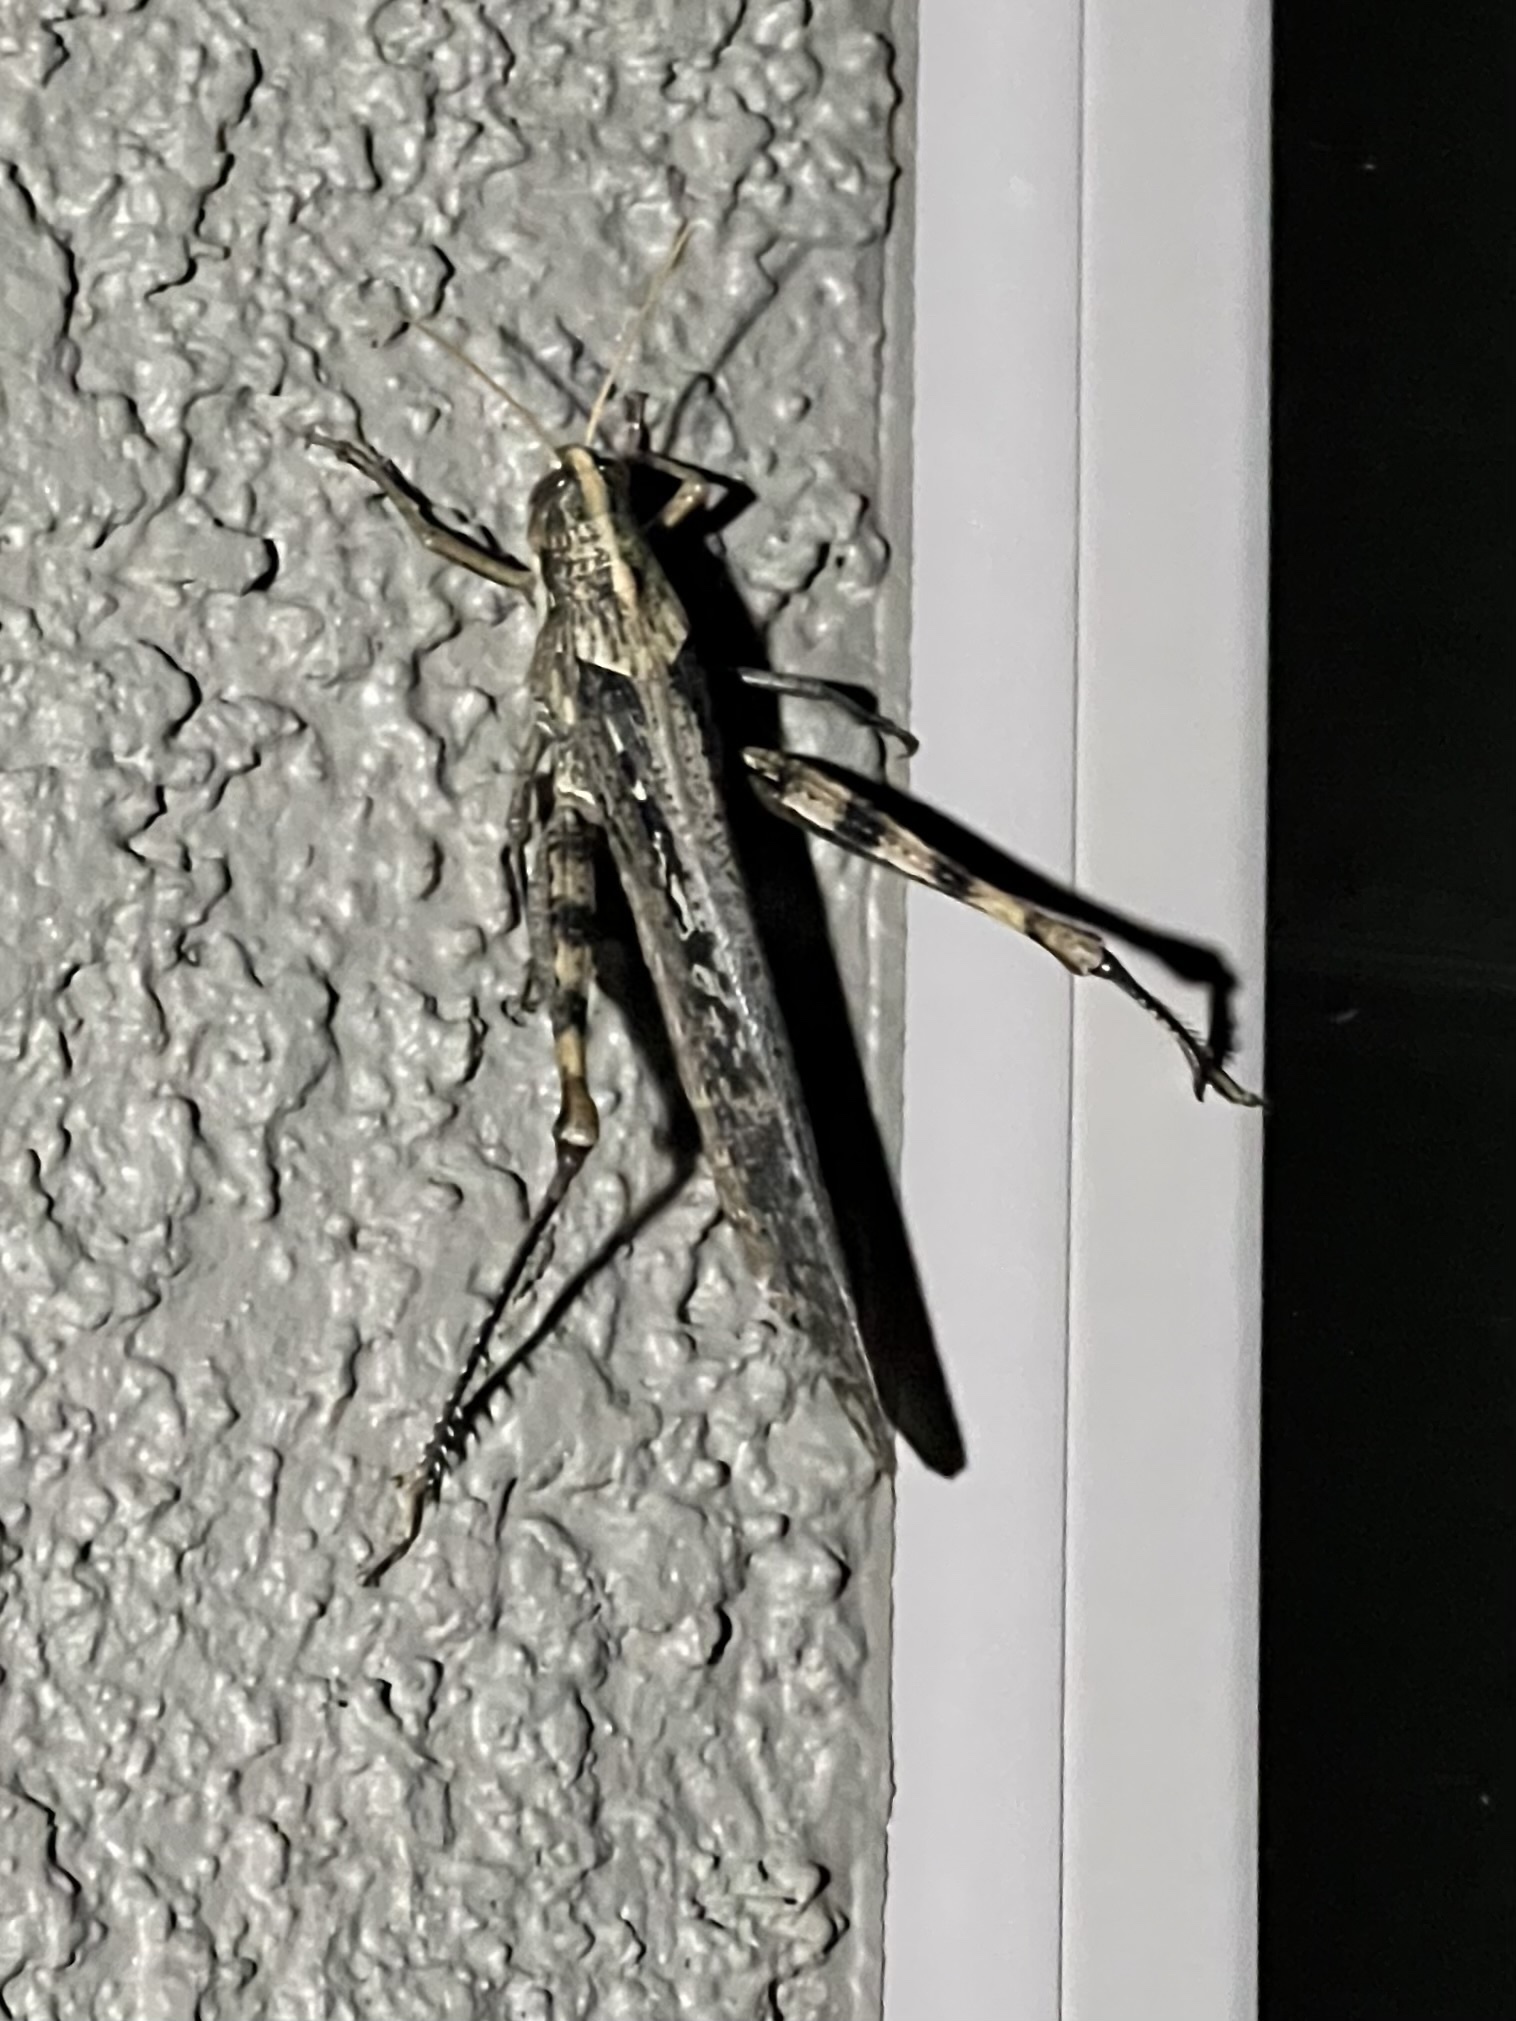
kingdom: Animalia
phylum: Arthropoda
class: Insecta
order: Orthoptera
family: Acrididae
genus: Schistocerca
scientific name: Schistocerca nitens
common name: Vagrant grasshopper
